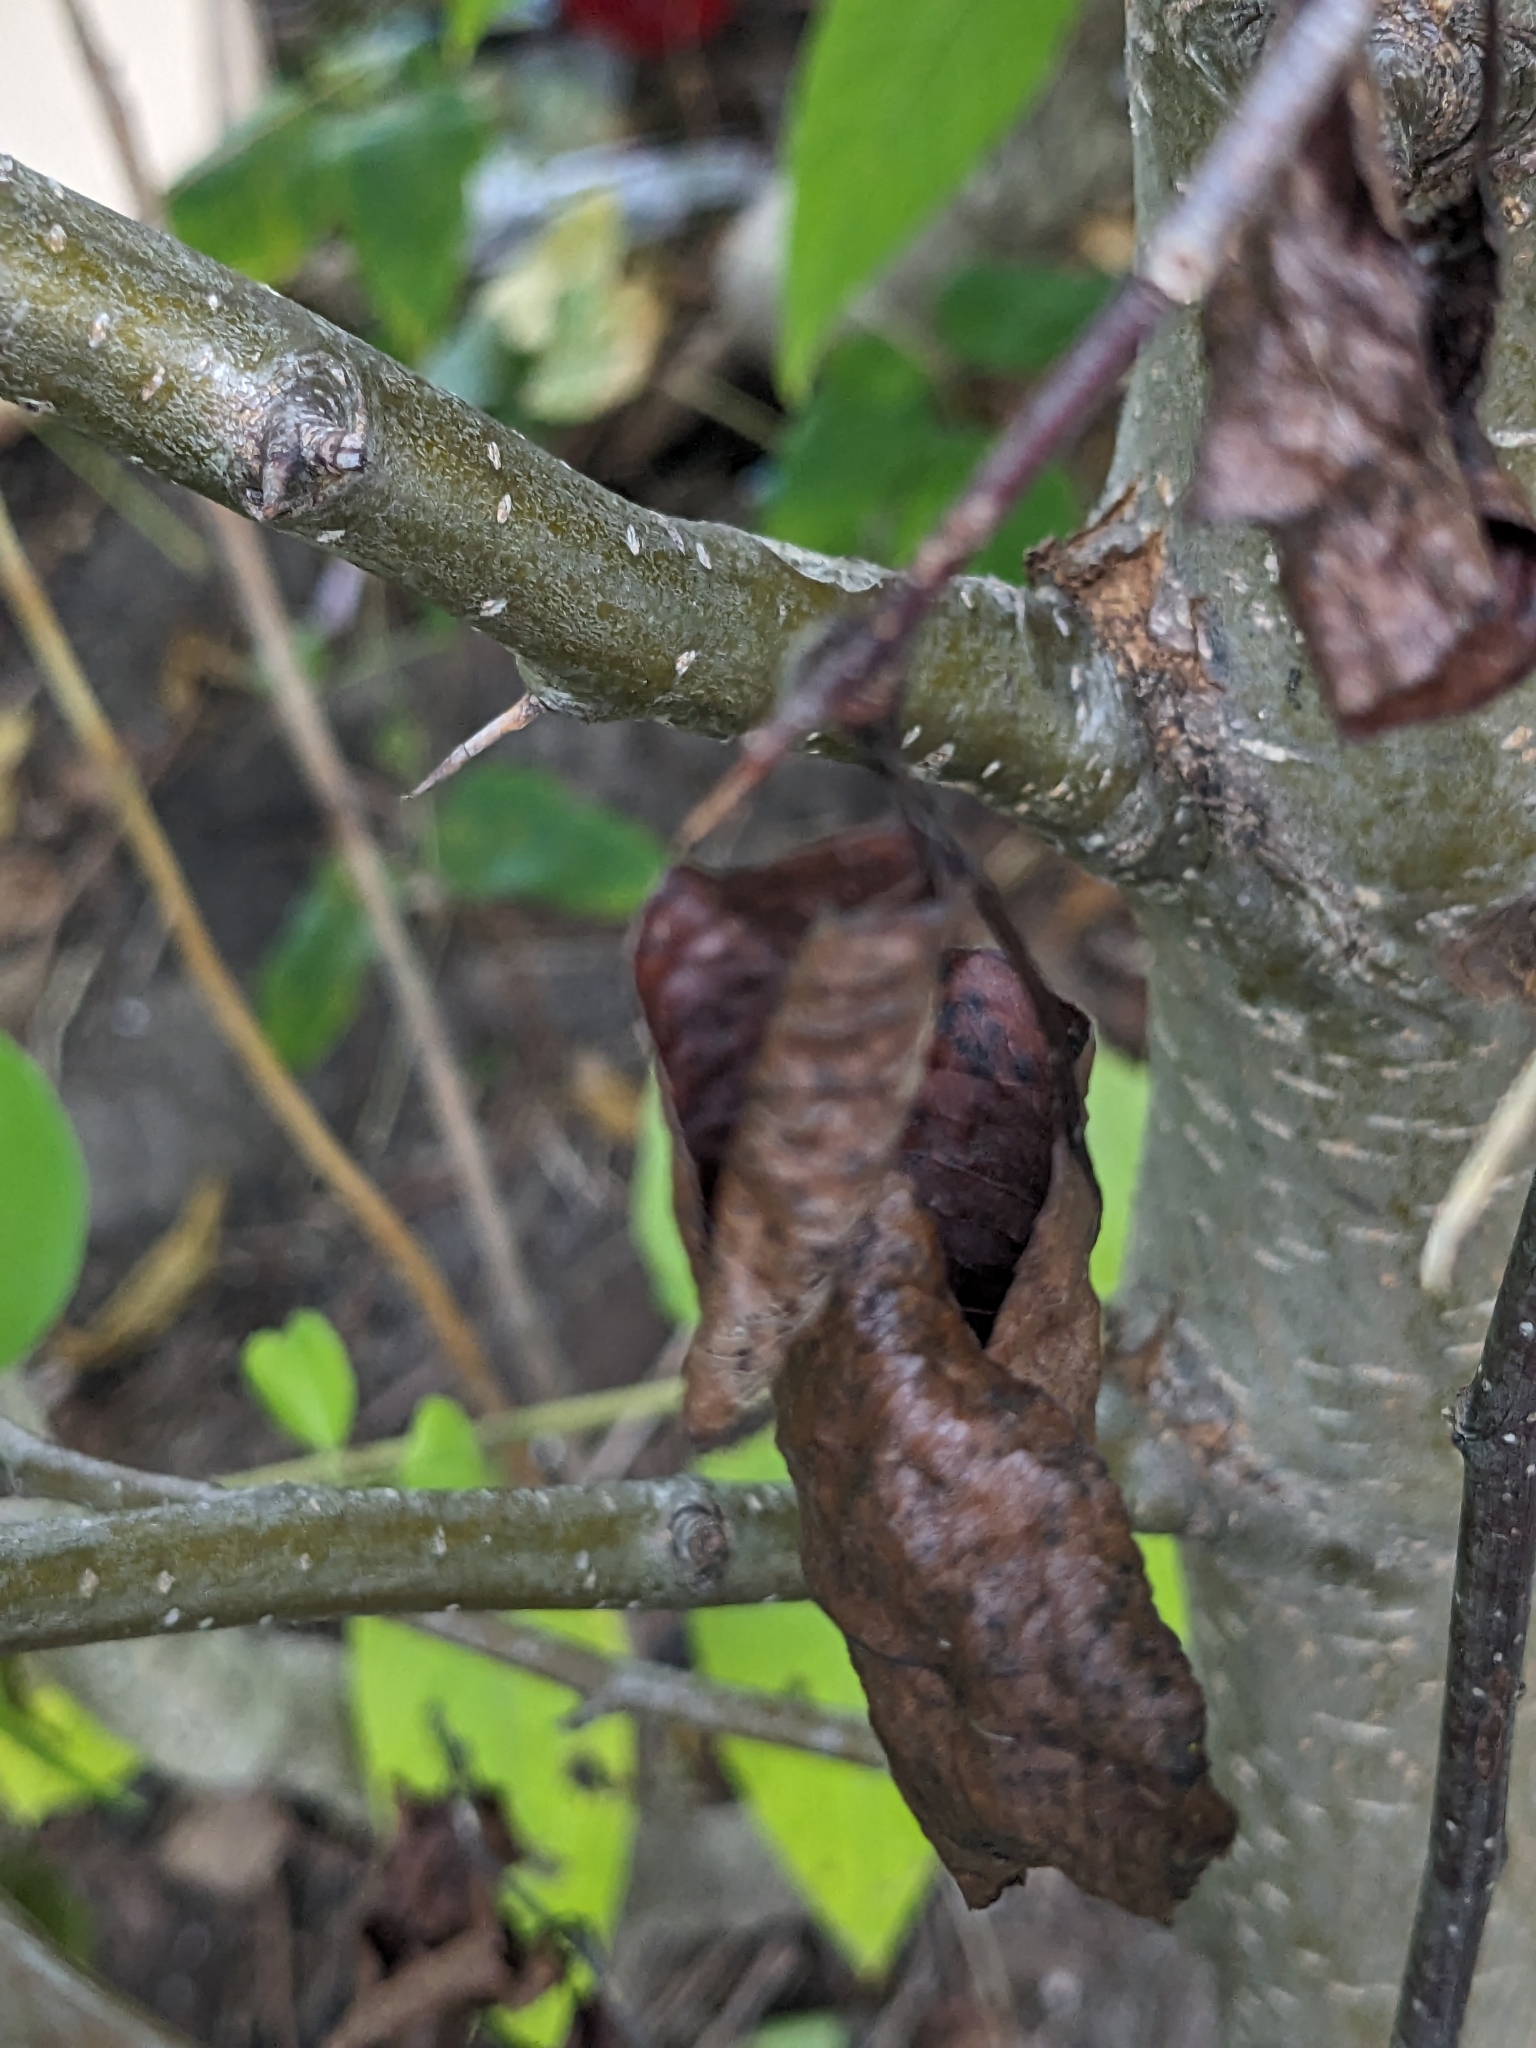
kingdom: Plantae
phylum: Tracheophyta
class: Magnoliopsida
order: Rosales
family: Rosaceae
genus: Pyrus
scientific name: Pyrus calleryana
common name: Callery pear
